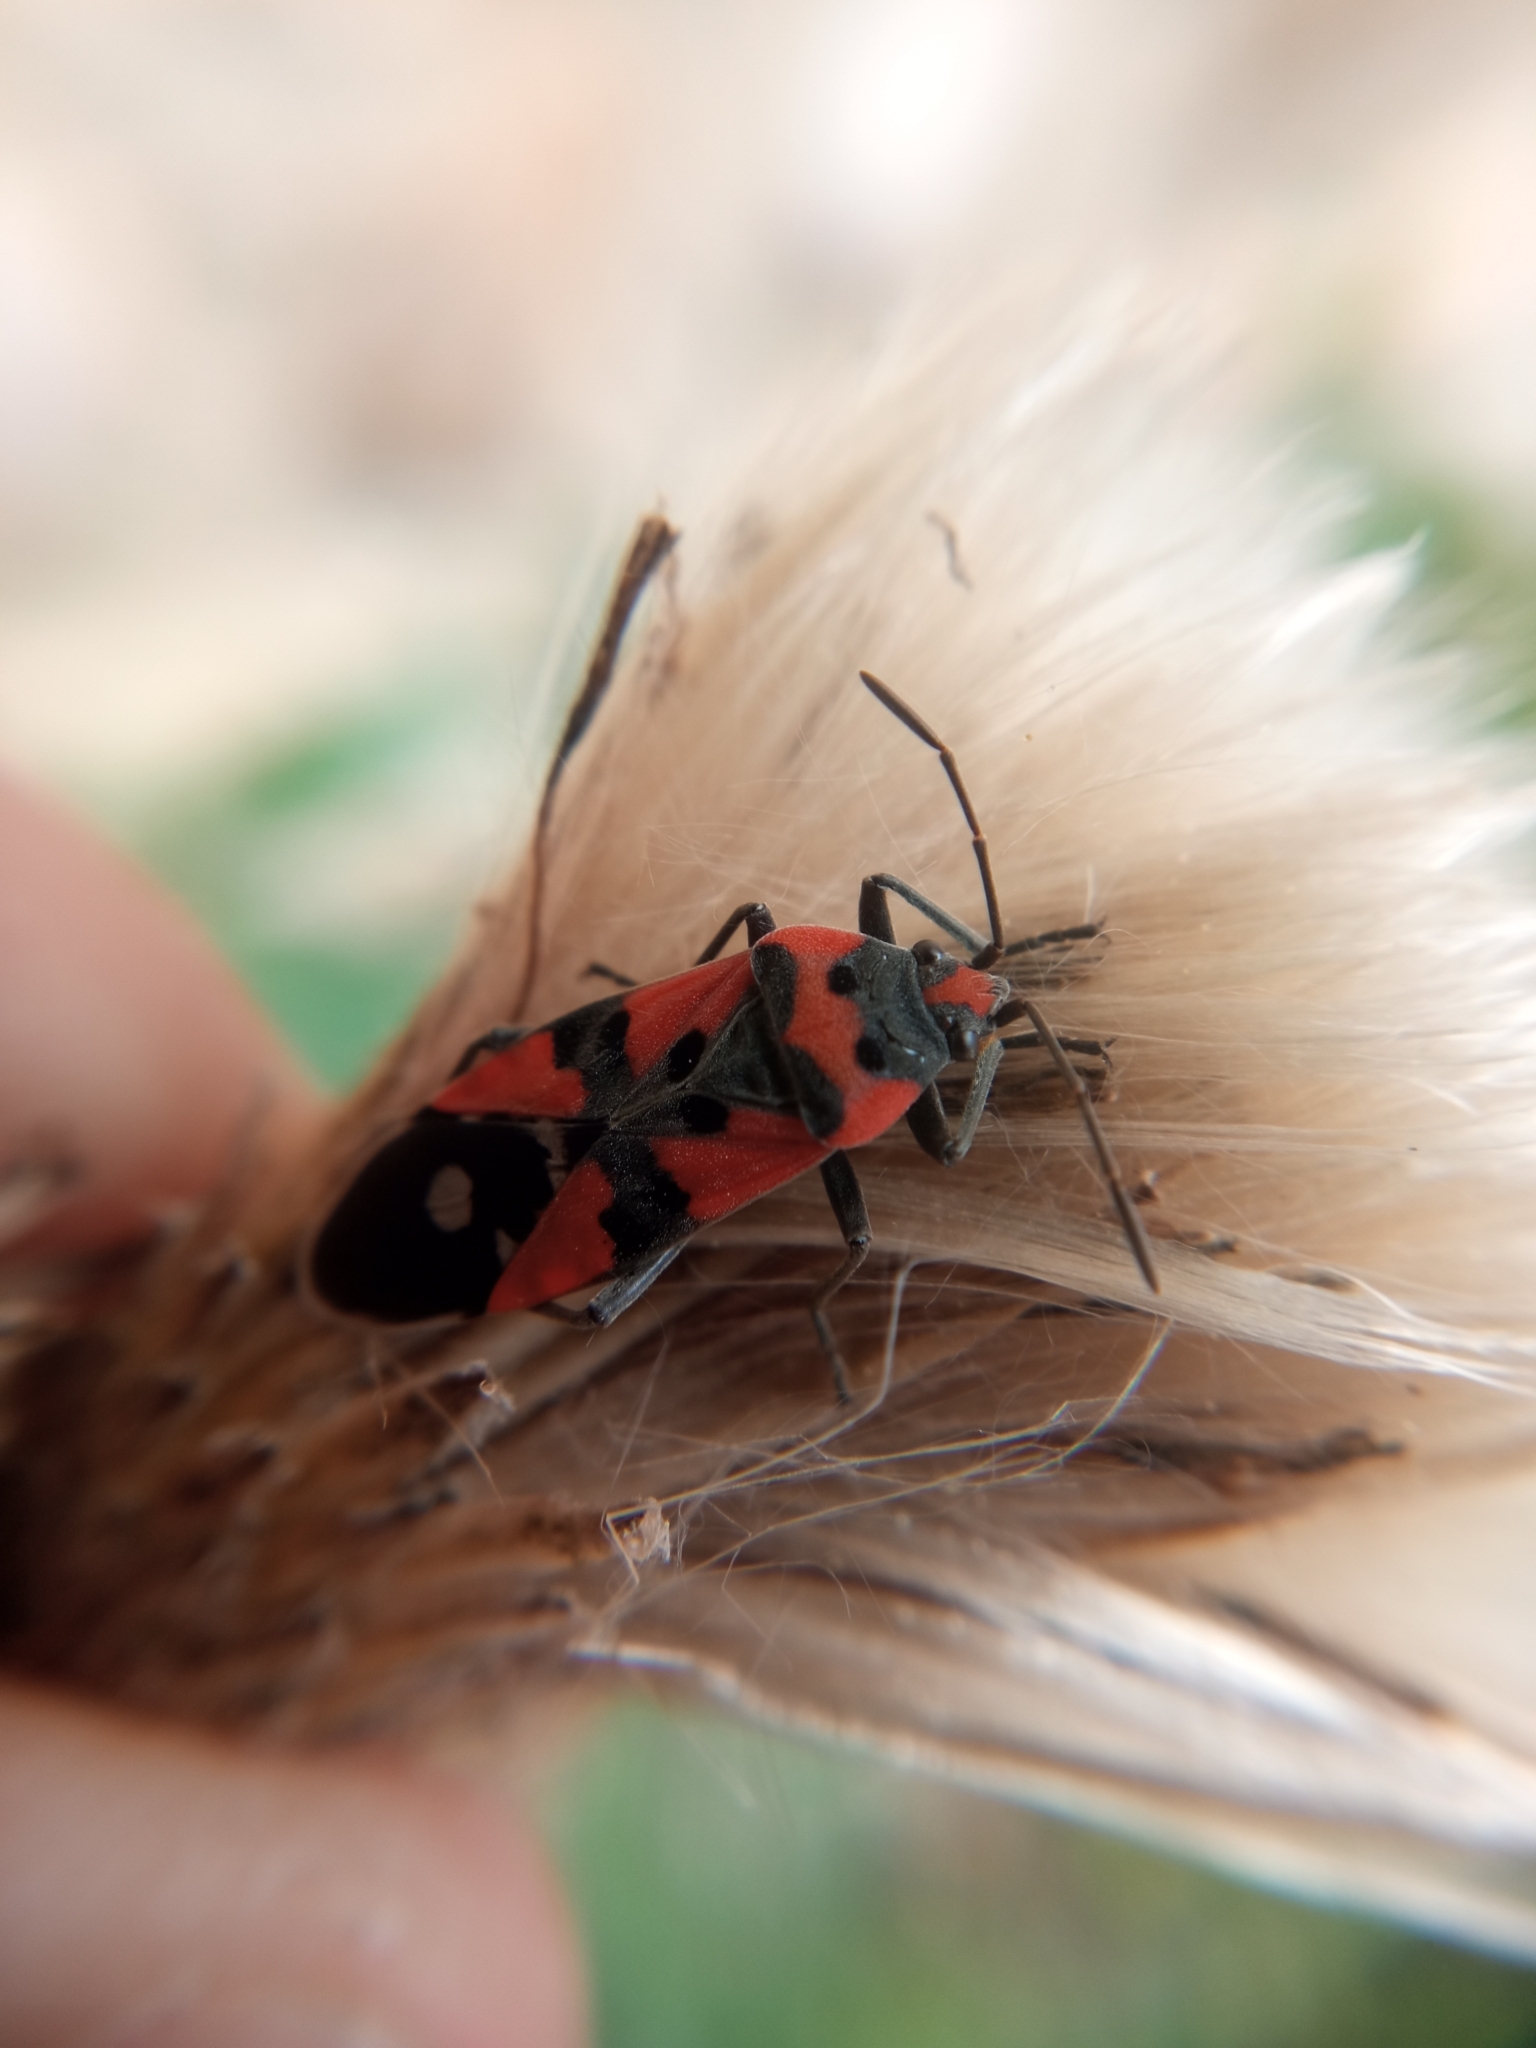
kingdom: Animalia
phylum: Arthropoda
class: Insecta
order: Hemiptera
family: Lygaeidae
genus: Lygaeus
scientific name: Lygaeus equestris
